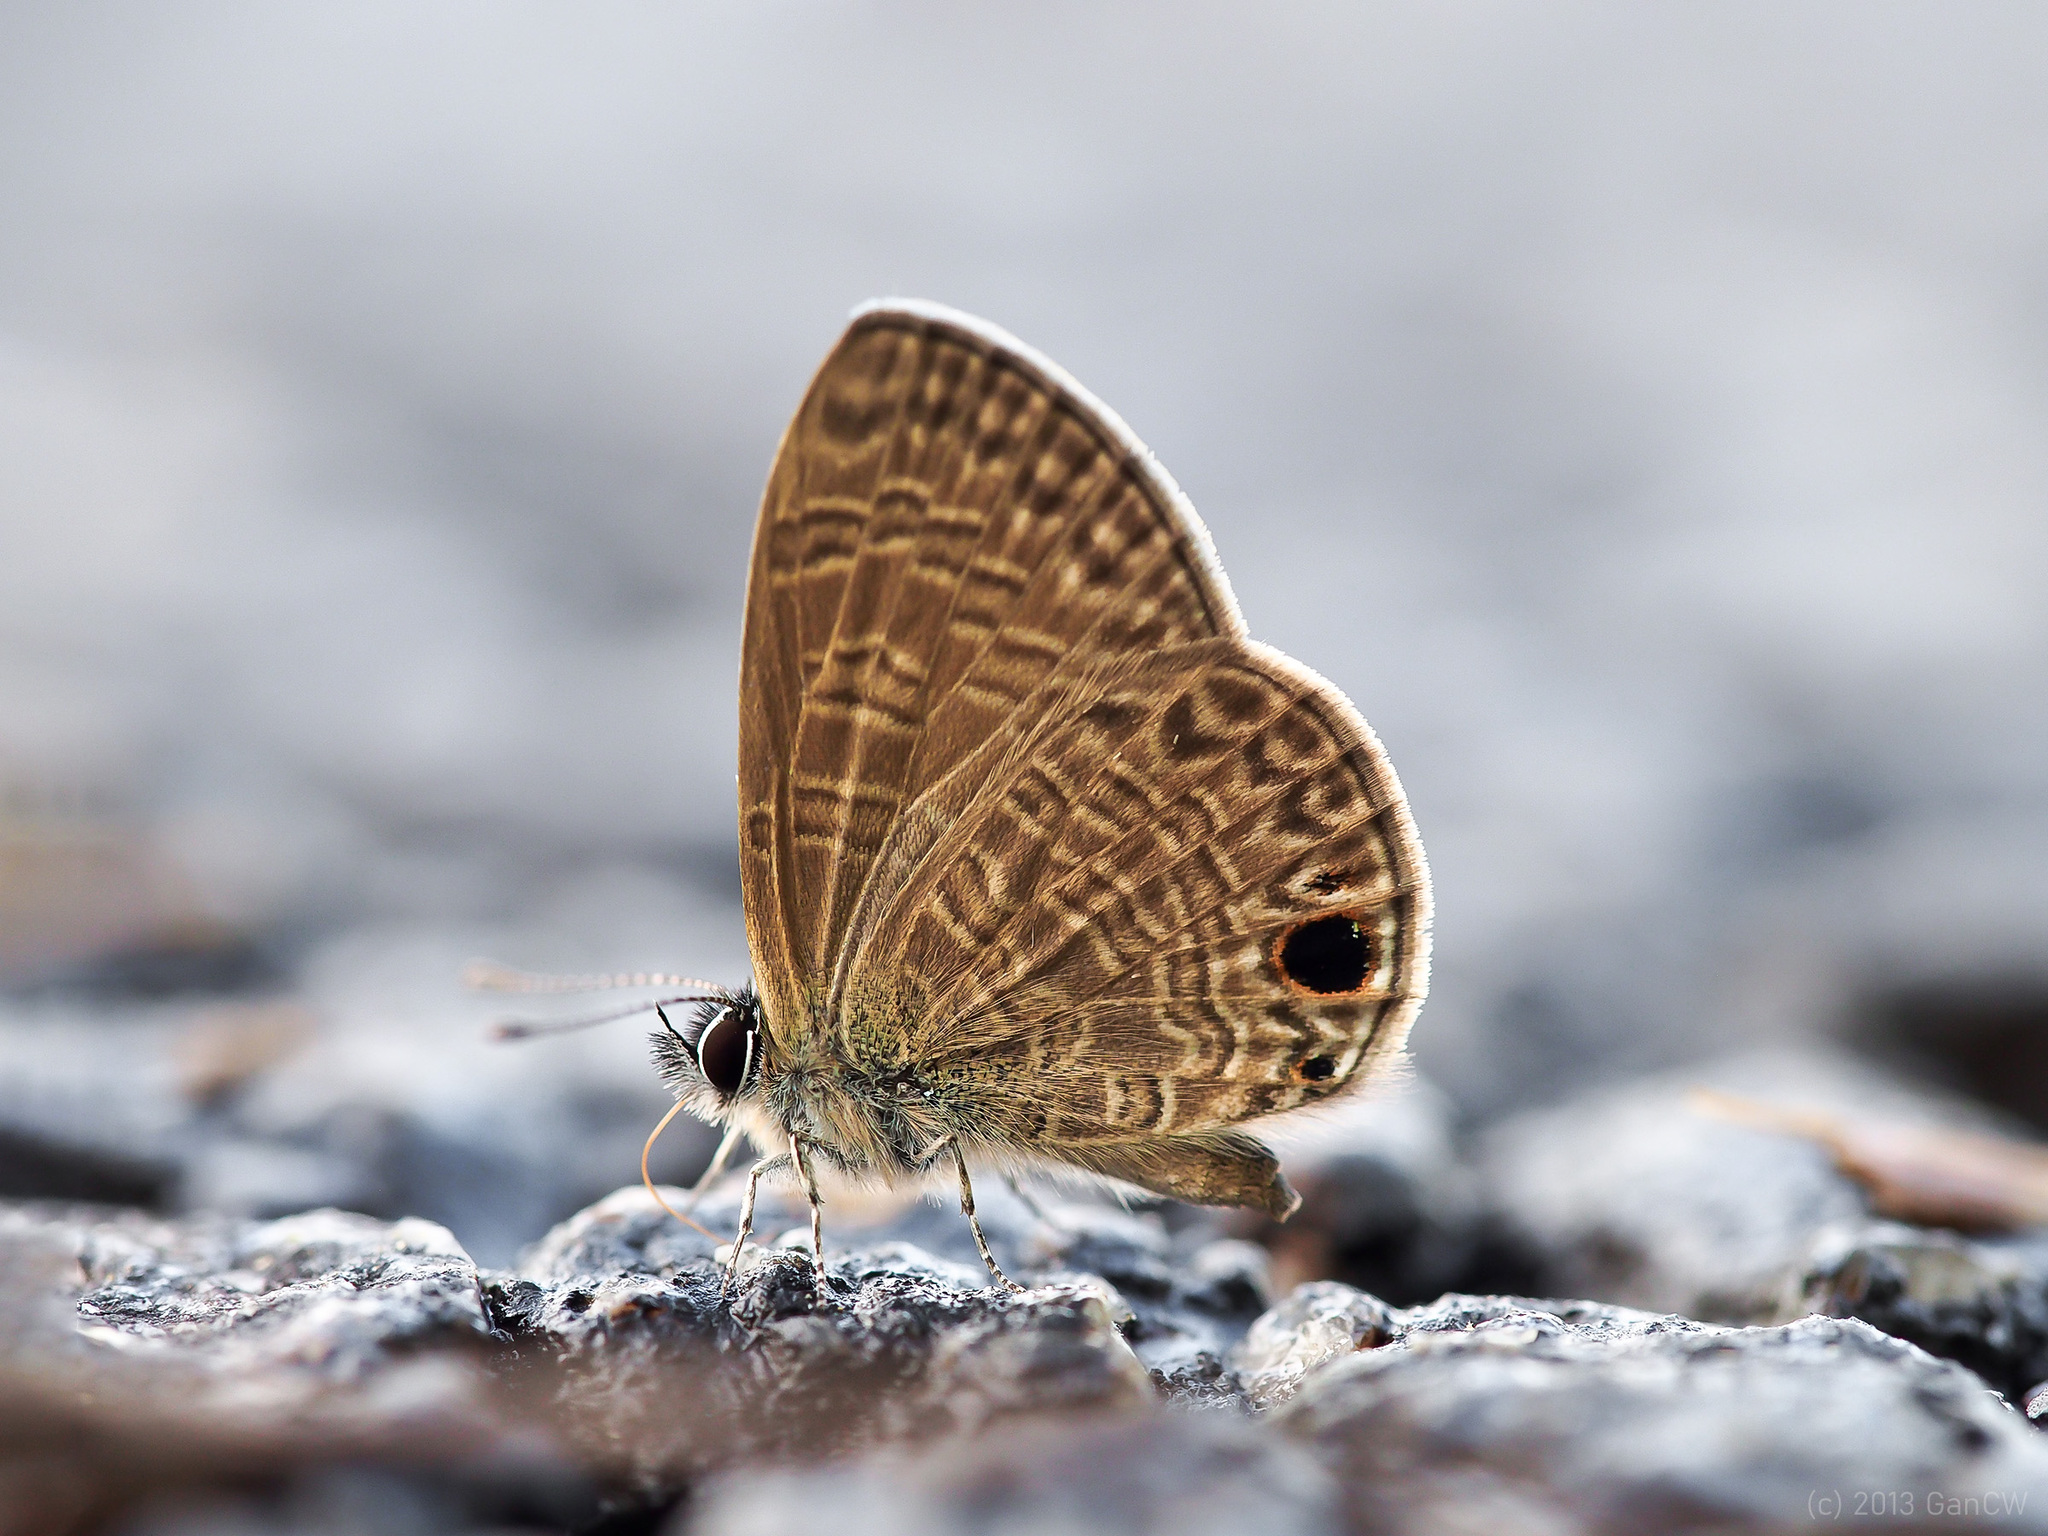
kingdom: Animalia
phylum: Arthropoda
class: Insecta
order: Lepidoptera
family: Lycaenidae
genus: Prosotas
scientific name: Prosotas dubiosa
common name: Tailless lineblue
